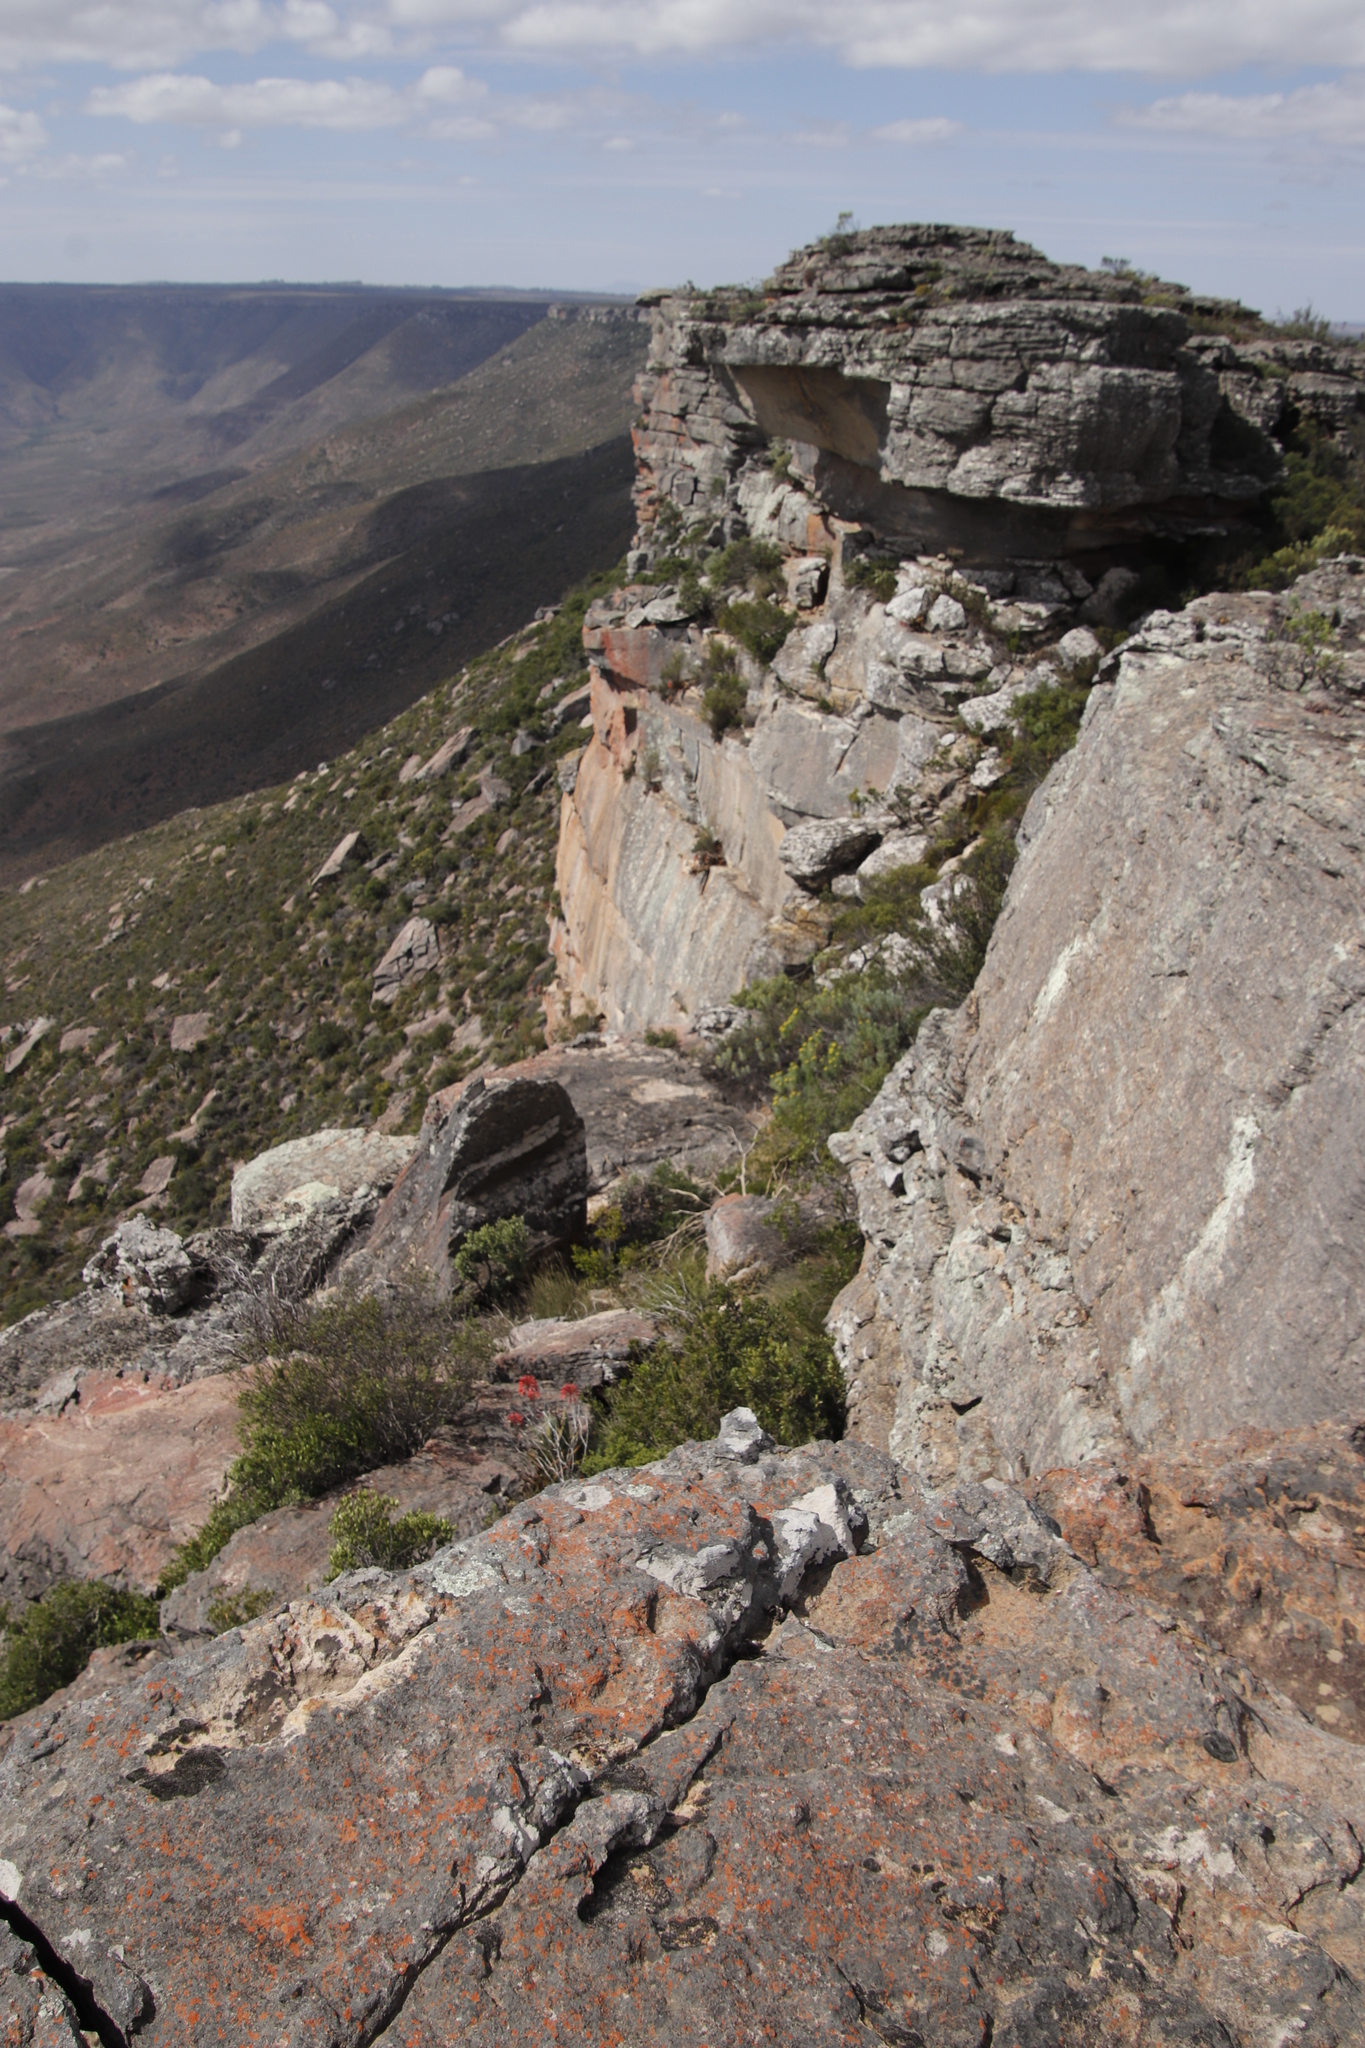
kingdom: Plantae
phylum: Tracheophyta
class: Liliopsida
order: Asparagales
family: Asphodelaceae
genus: Aloe
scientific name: Aloe perfoliata
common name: Mitra aloe
